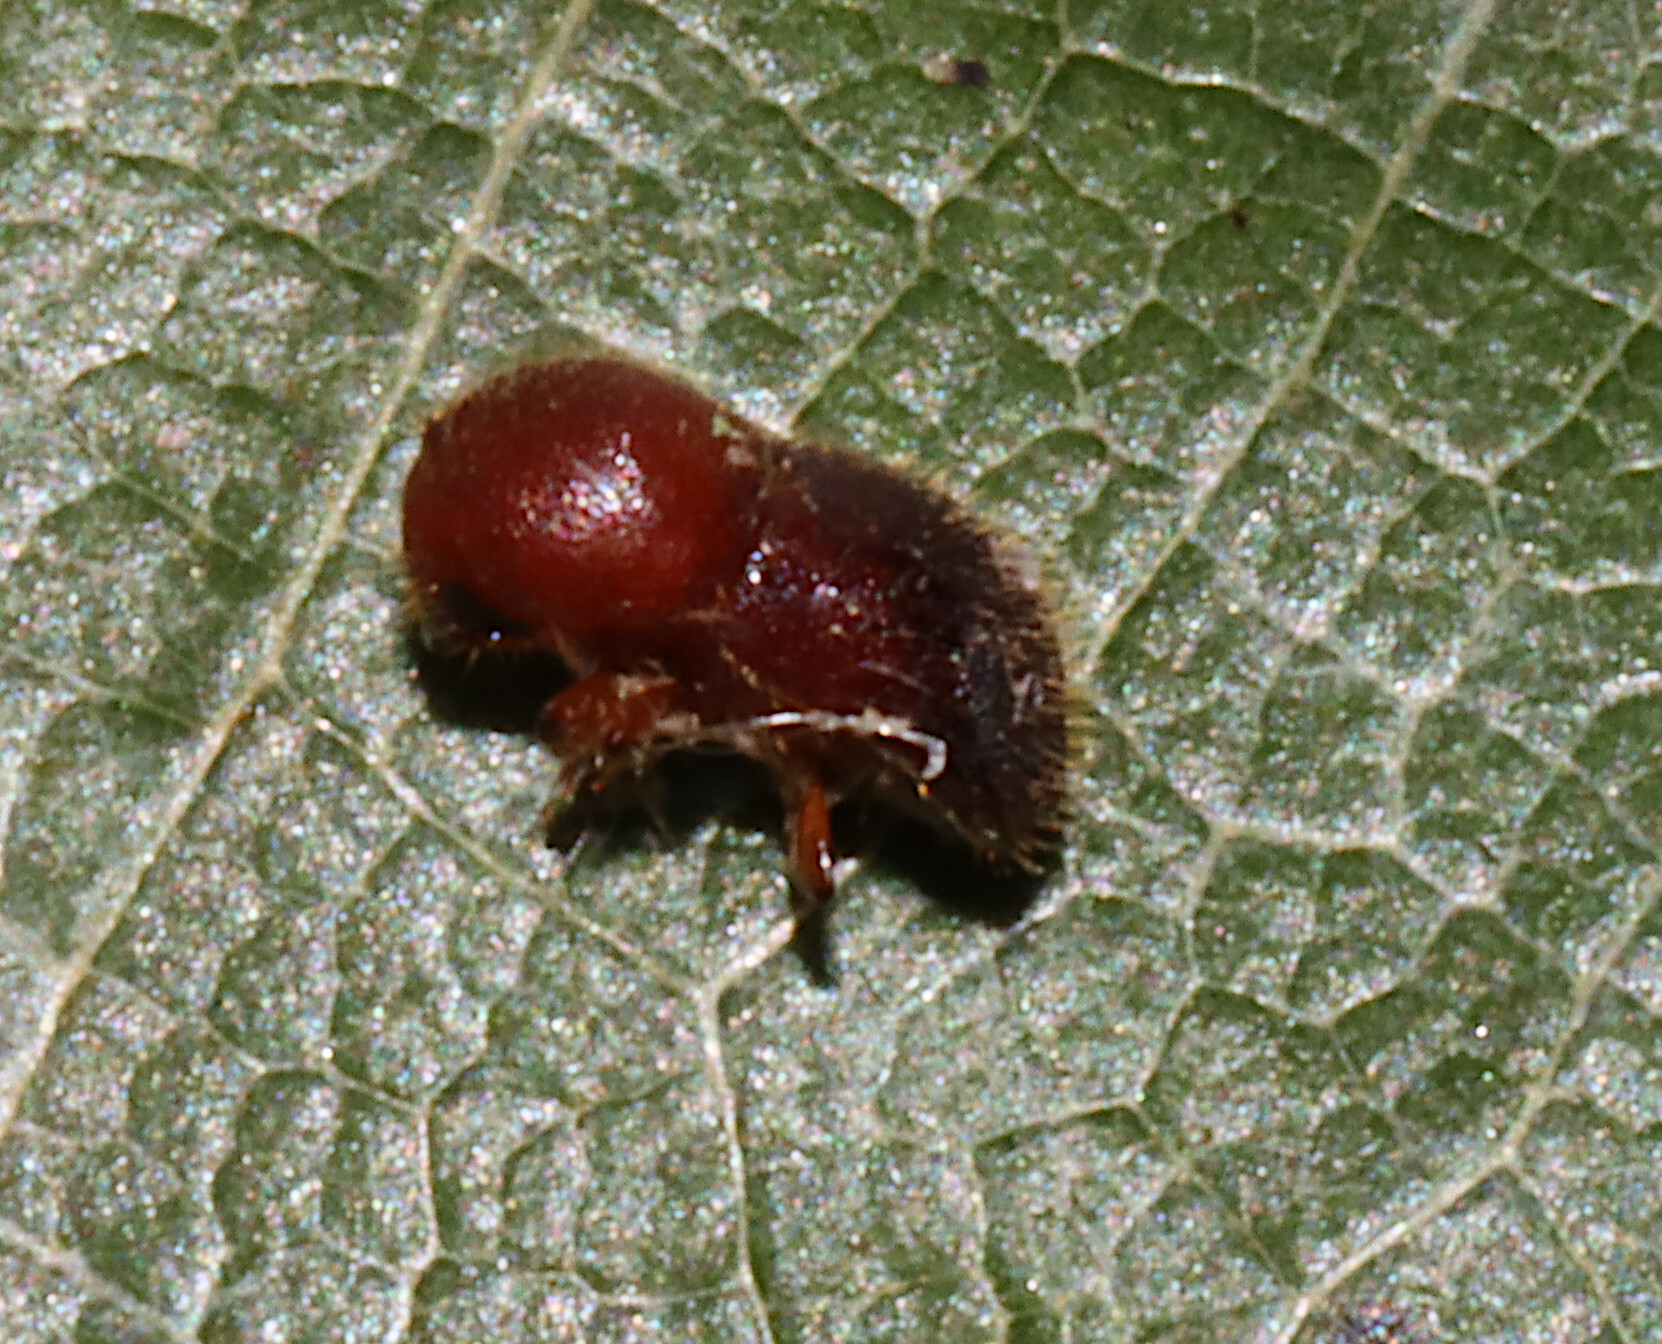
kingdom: Animalia
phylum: Arthropoda
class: Insecta
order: Coleoptera
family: Curculionidae
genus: Xylosandrus
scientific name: Xylosandrus crassiusculus
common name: Granulate ambrosia beetle
